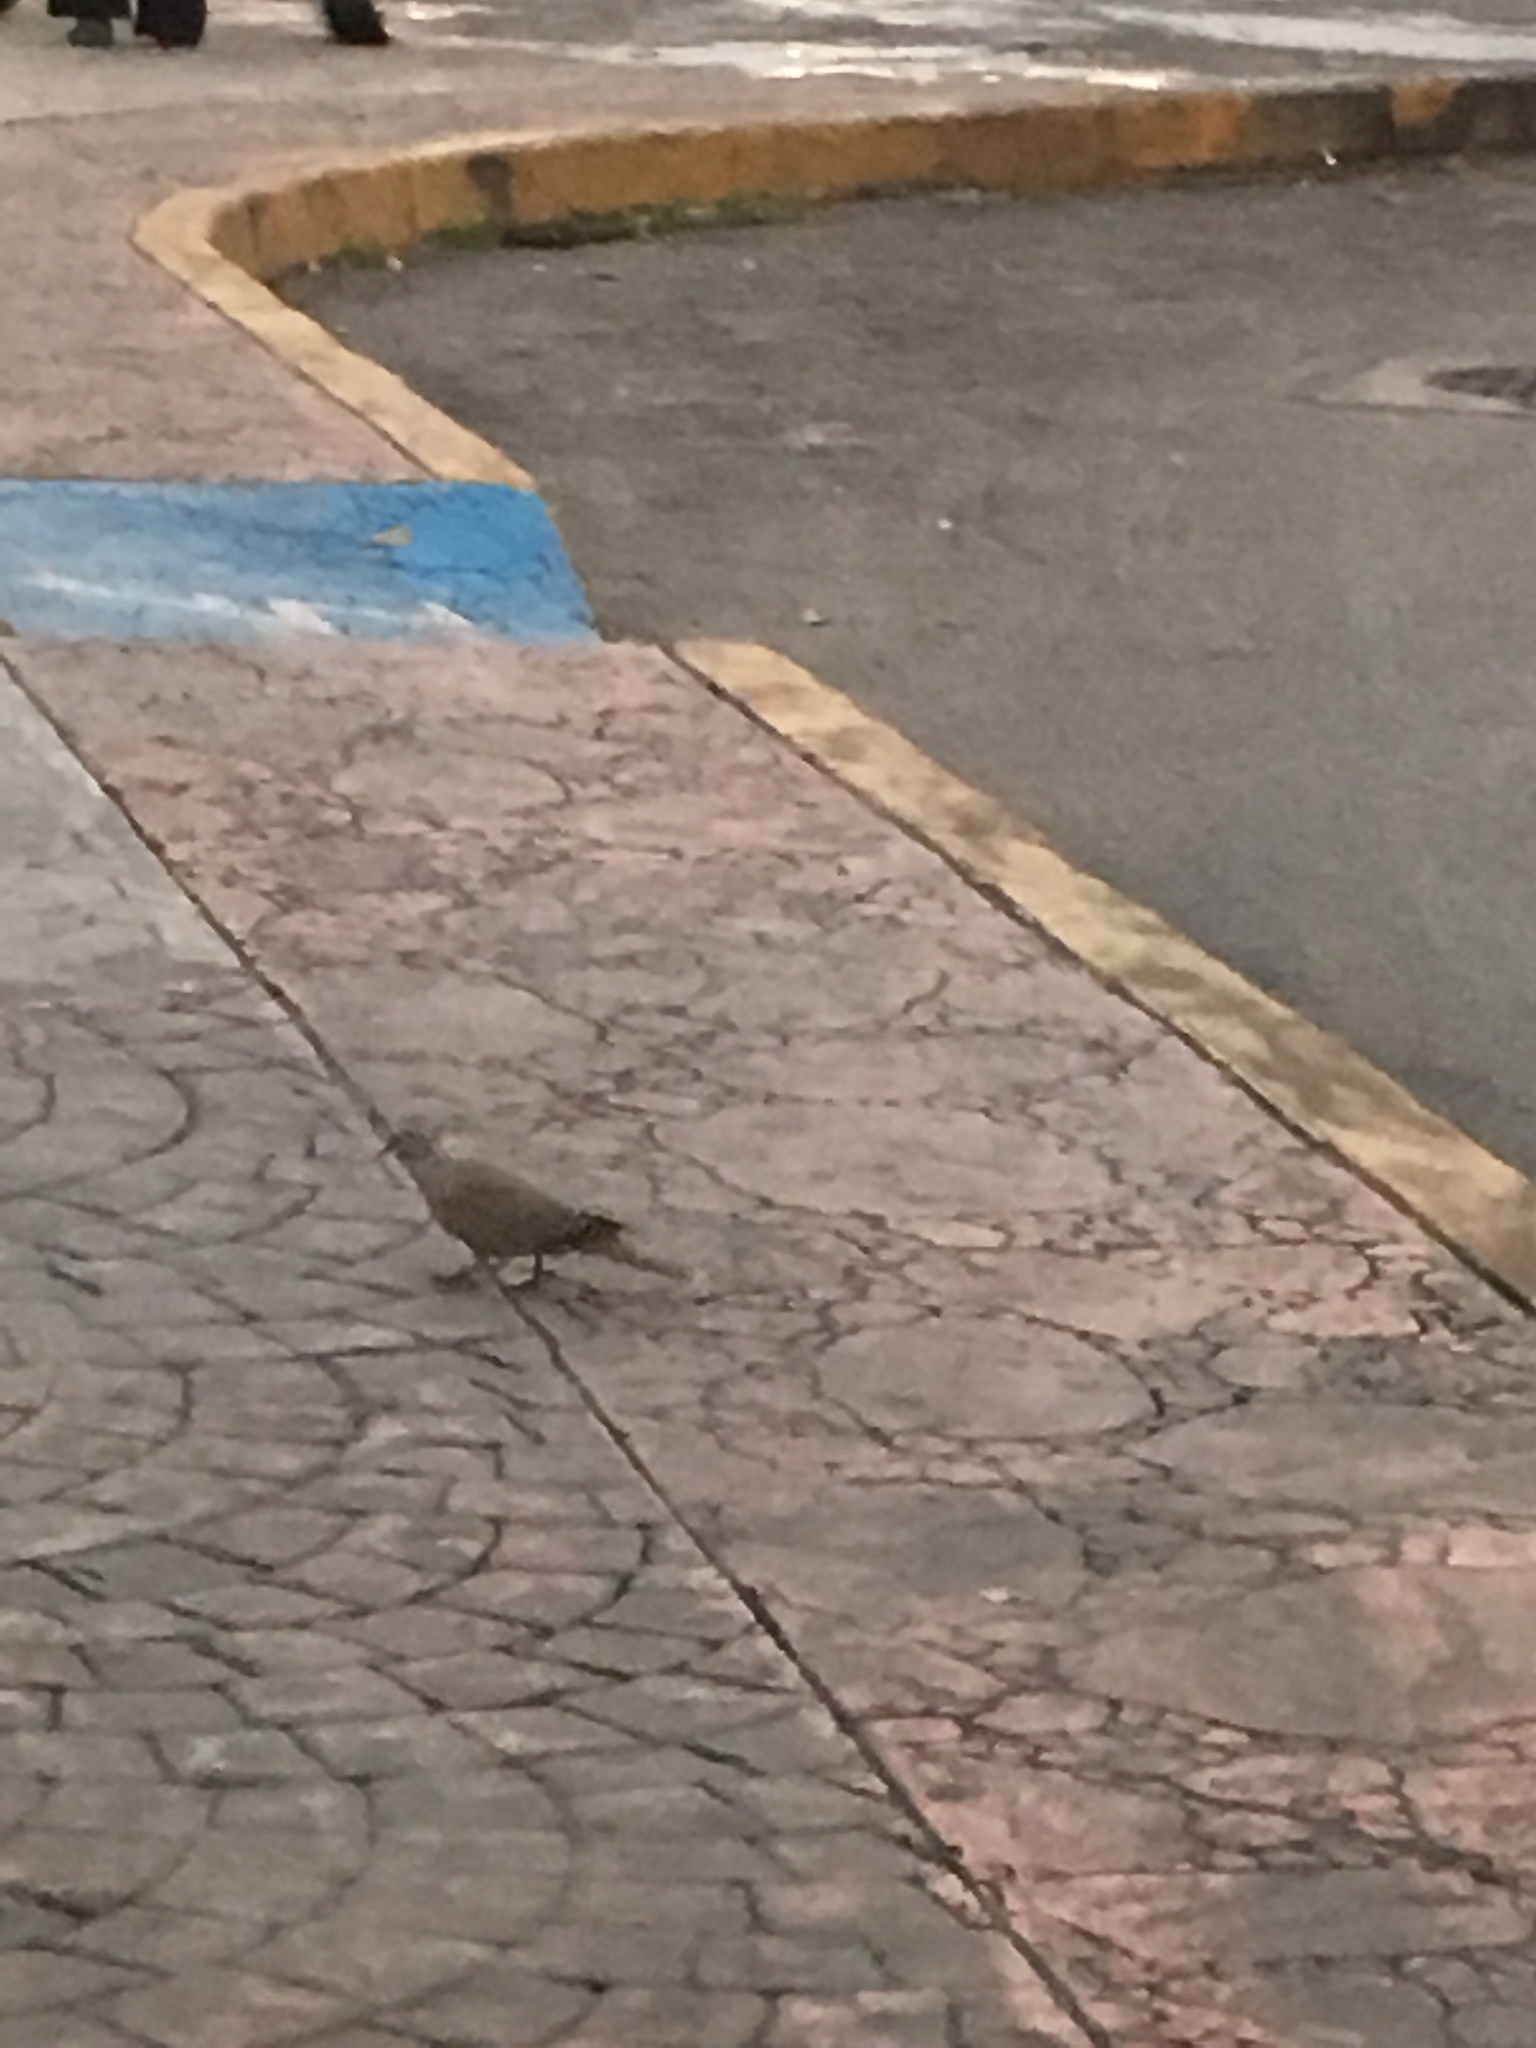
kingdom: Animalia
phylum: Chordata
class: Aves
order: Columbiformes
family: Columbidae
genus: Streptopelia
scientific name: Streptopelia decaocto
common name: Eurasian collared dove
